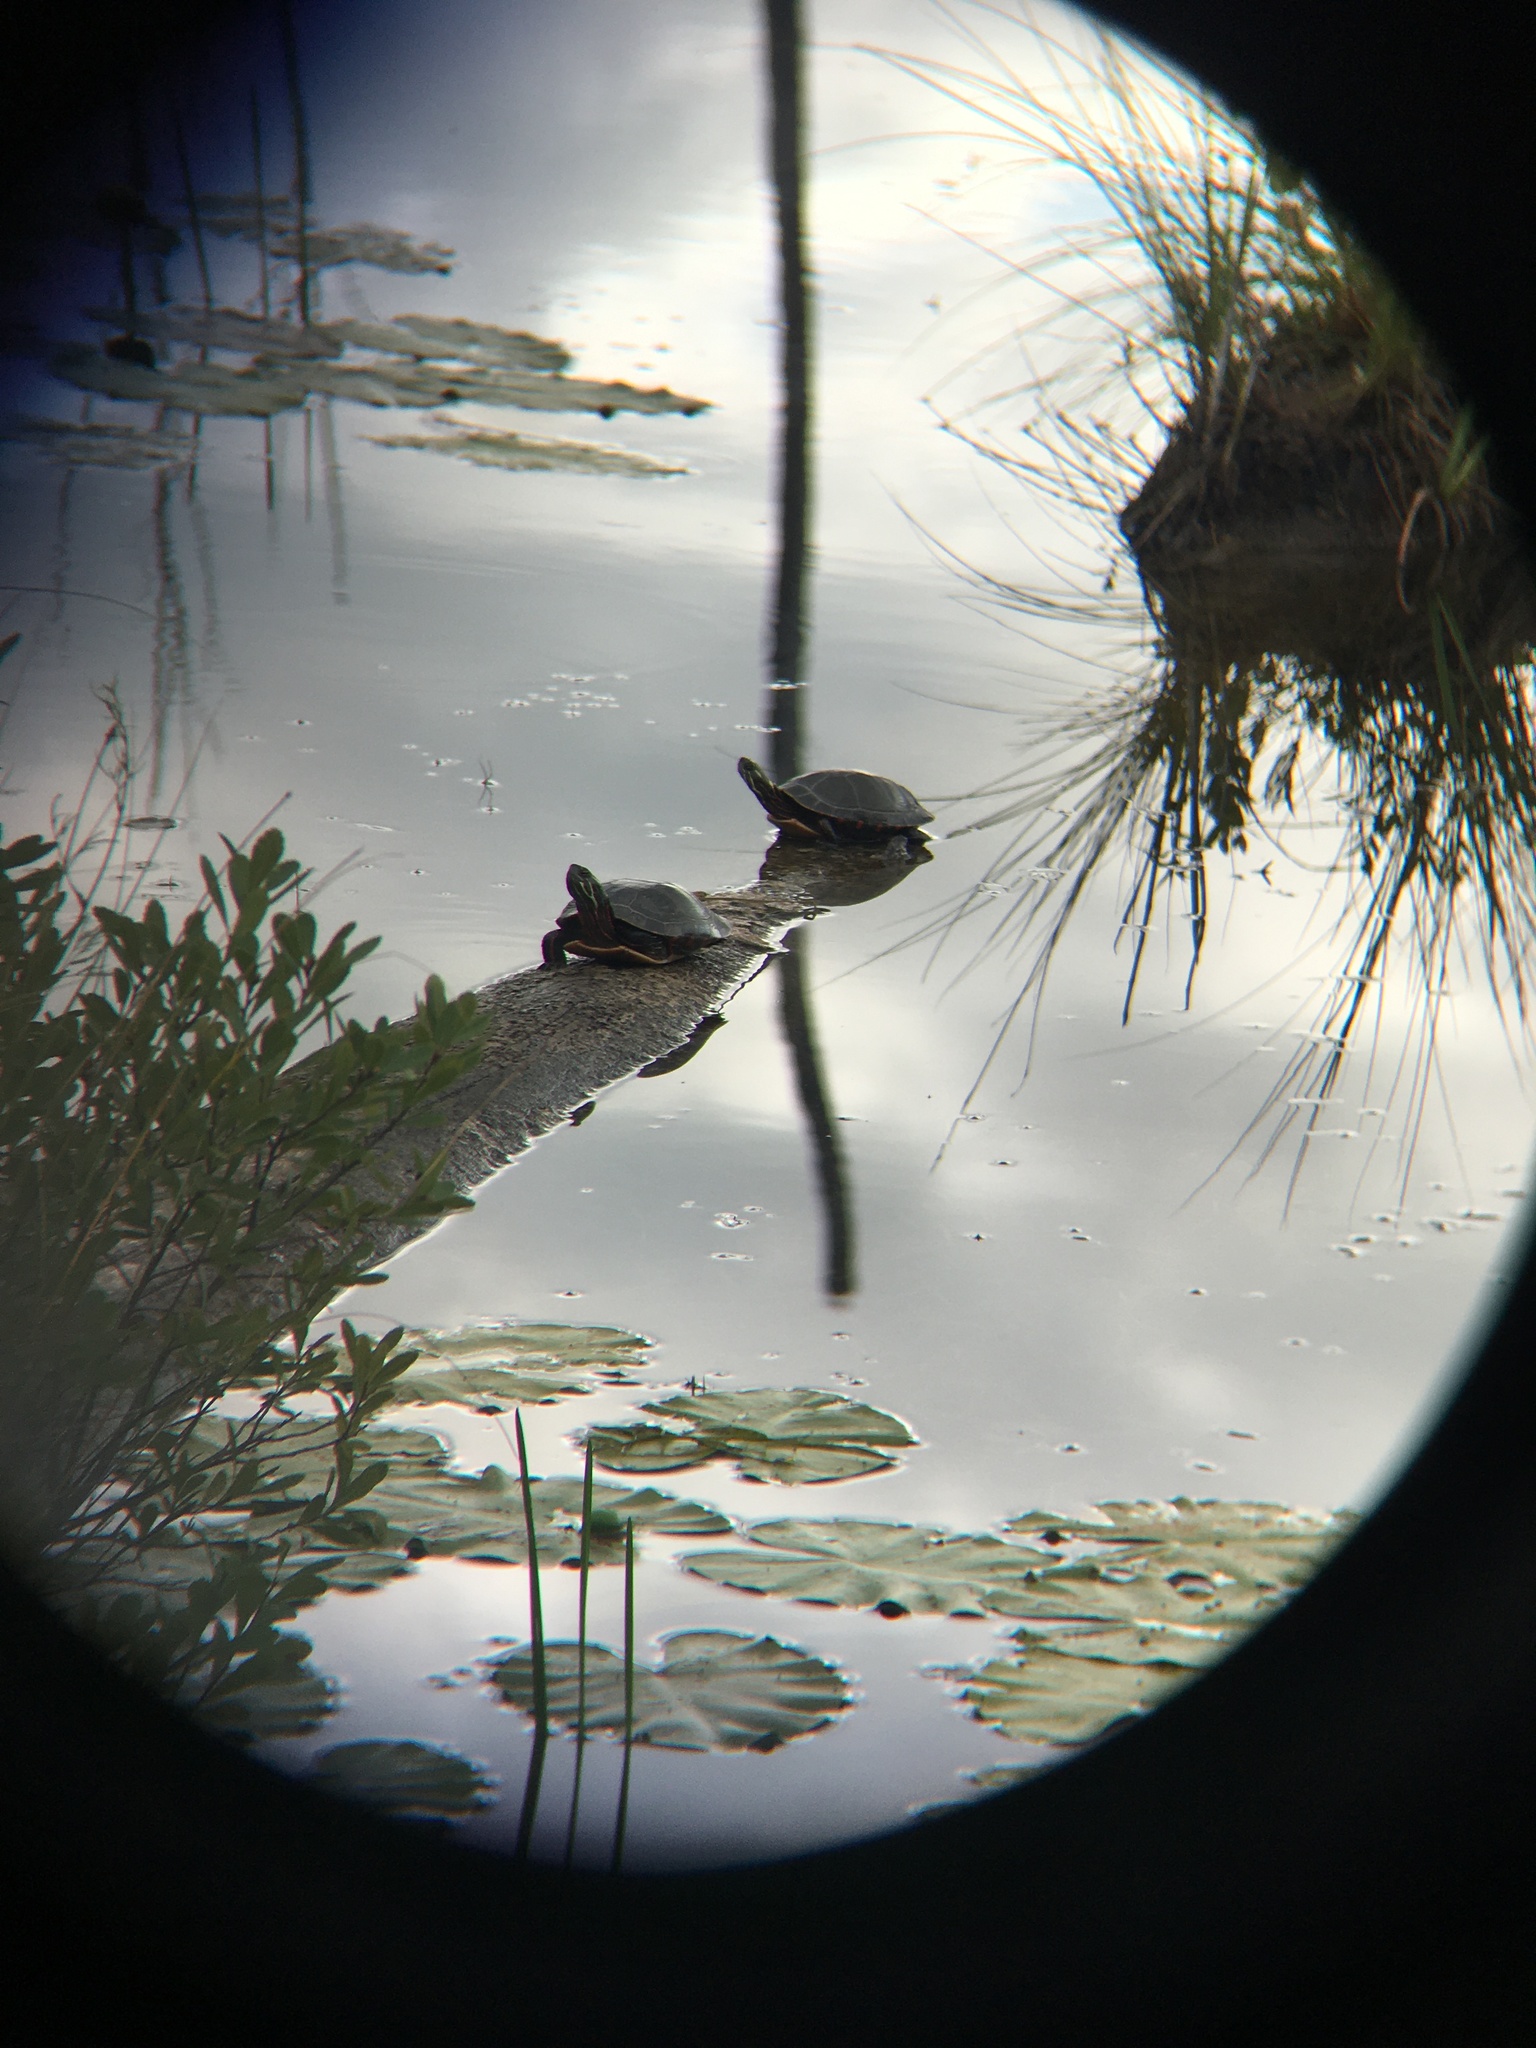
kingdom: Animalia
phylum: Chordata
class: Testudines
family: Emydidae
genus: Chrysemys
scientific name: Chrysemys picta
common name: Painted turtle
